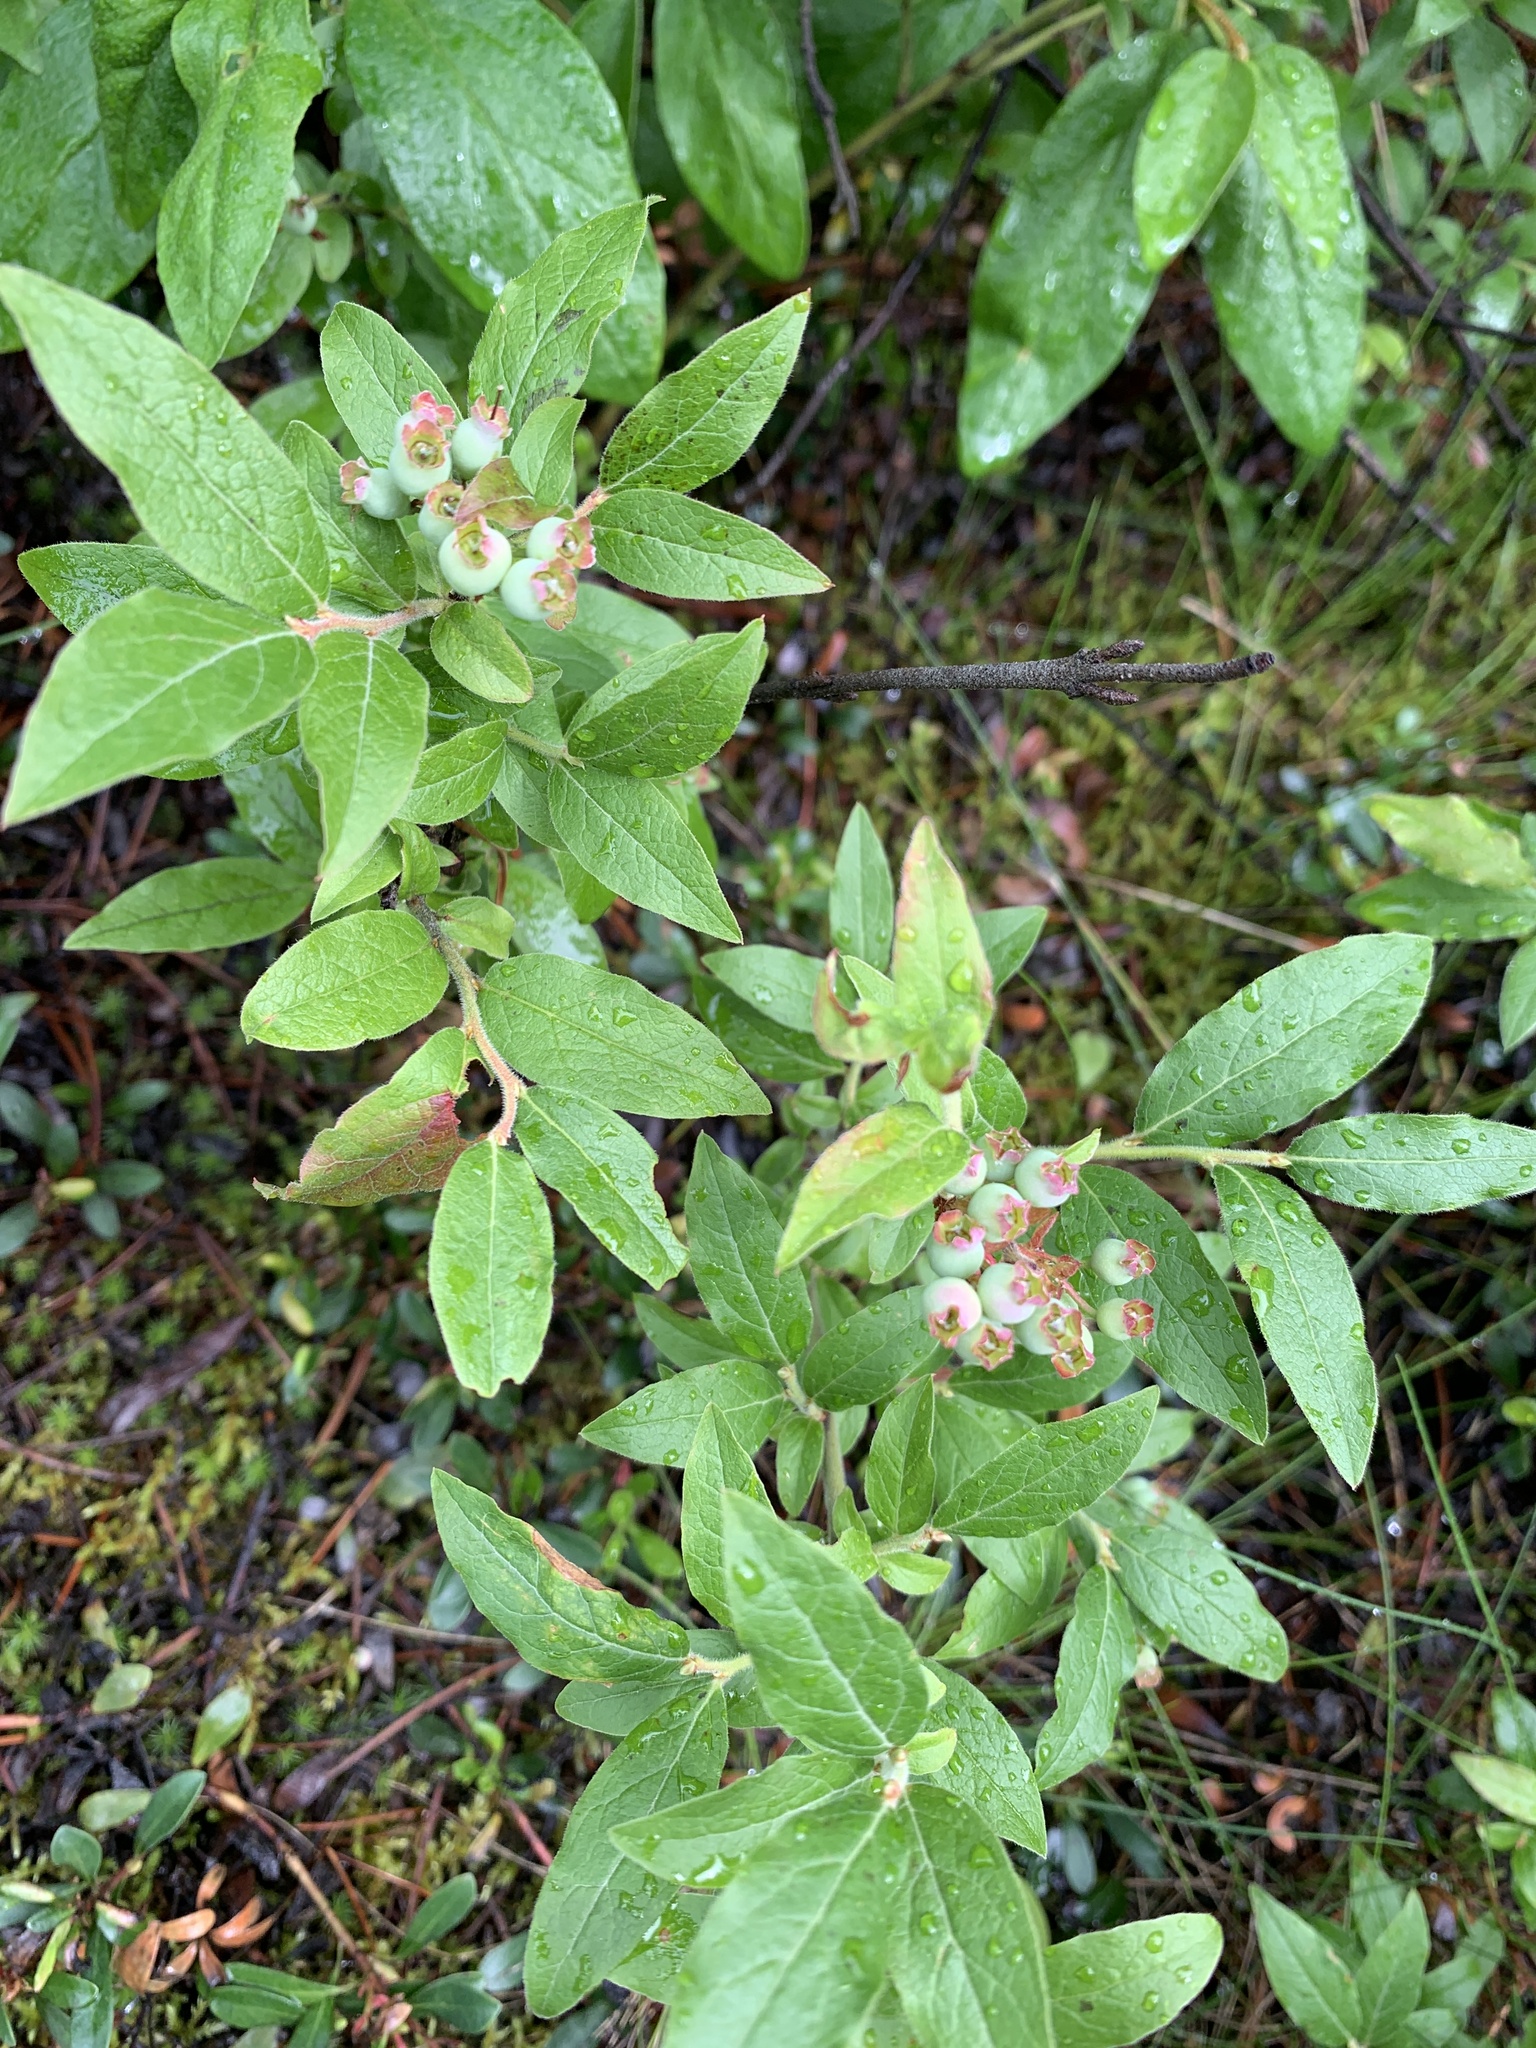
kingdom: Plantae
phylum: Tracheophyta
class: Magnoliopsida
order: Ericales
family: Ericaceae
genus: Vaccinium
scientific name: Vaccinium myrtilloides
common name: Canada blueberry
